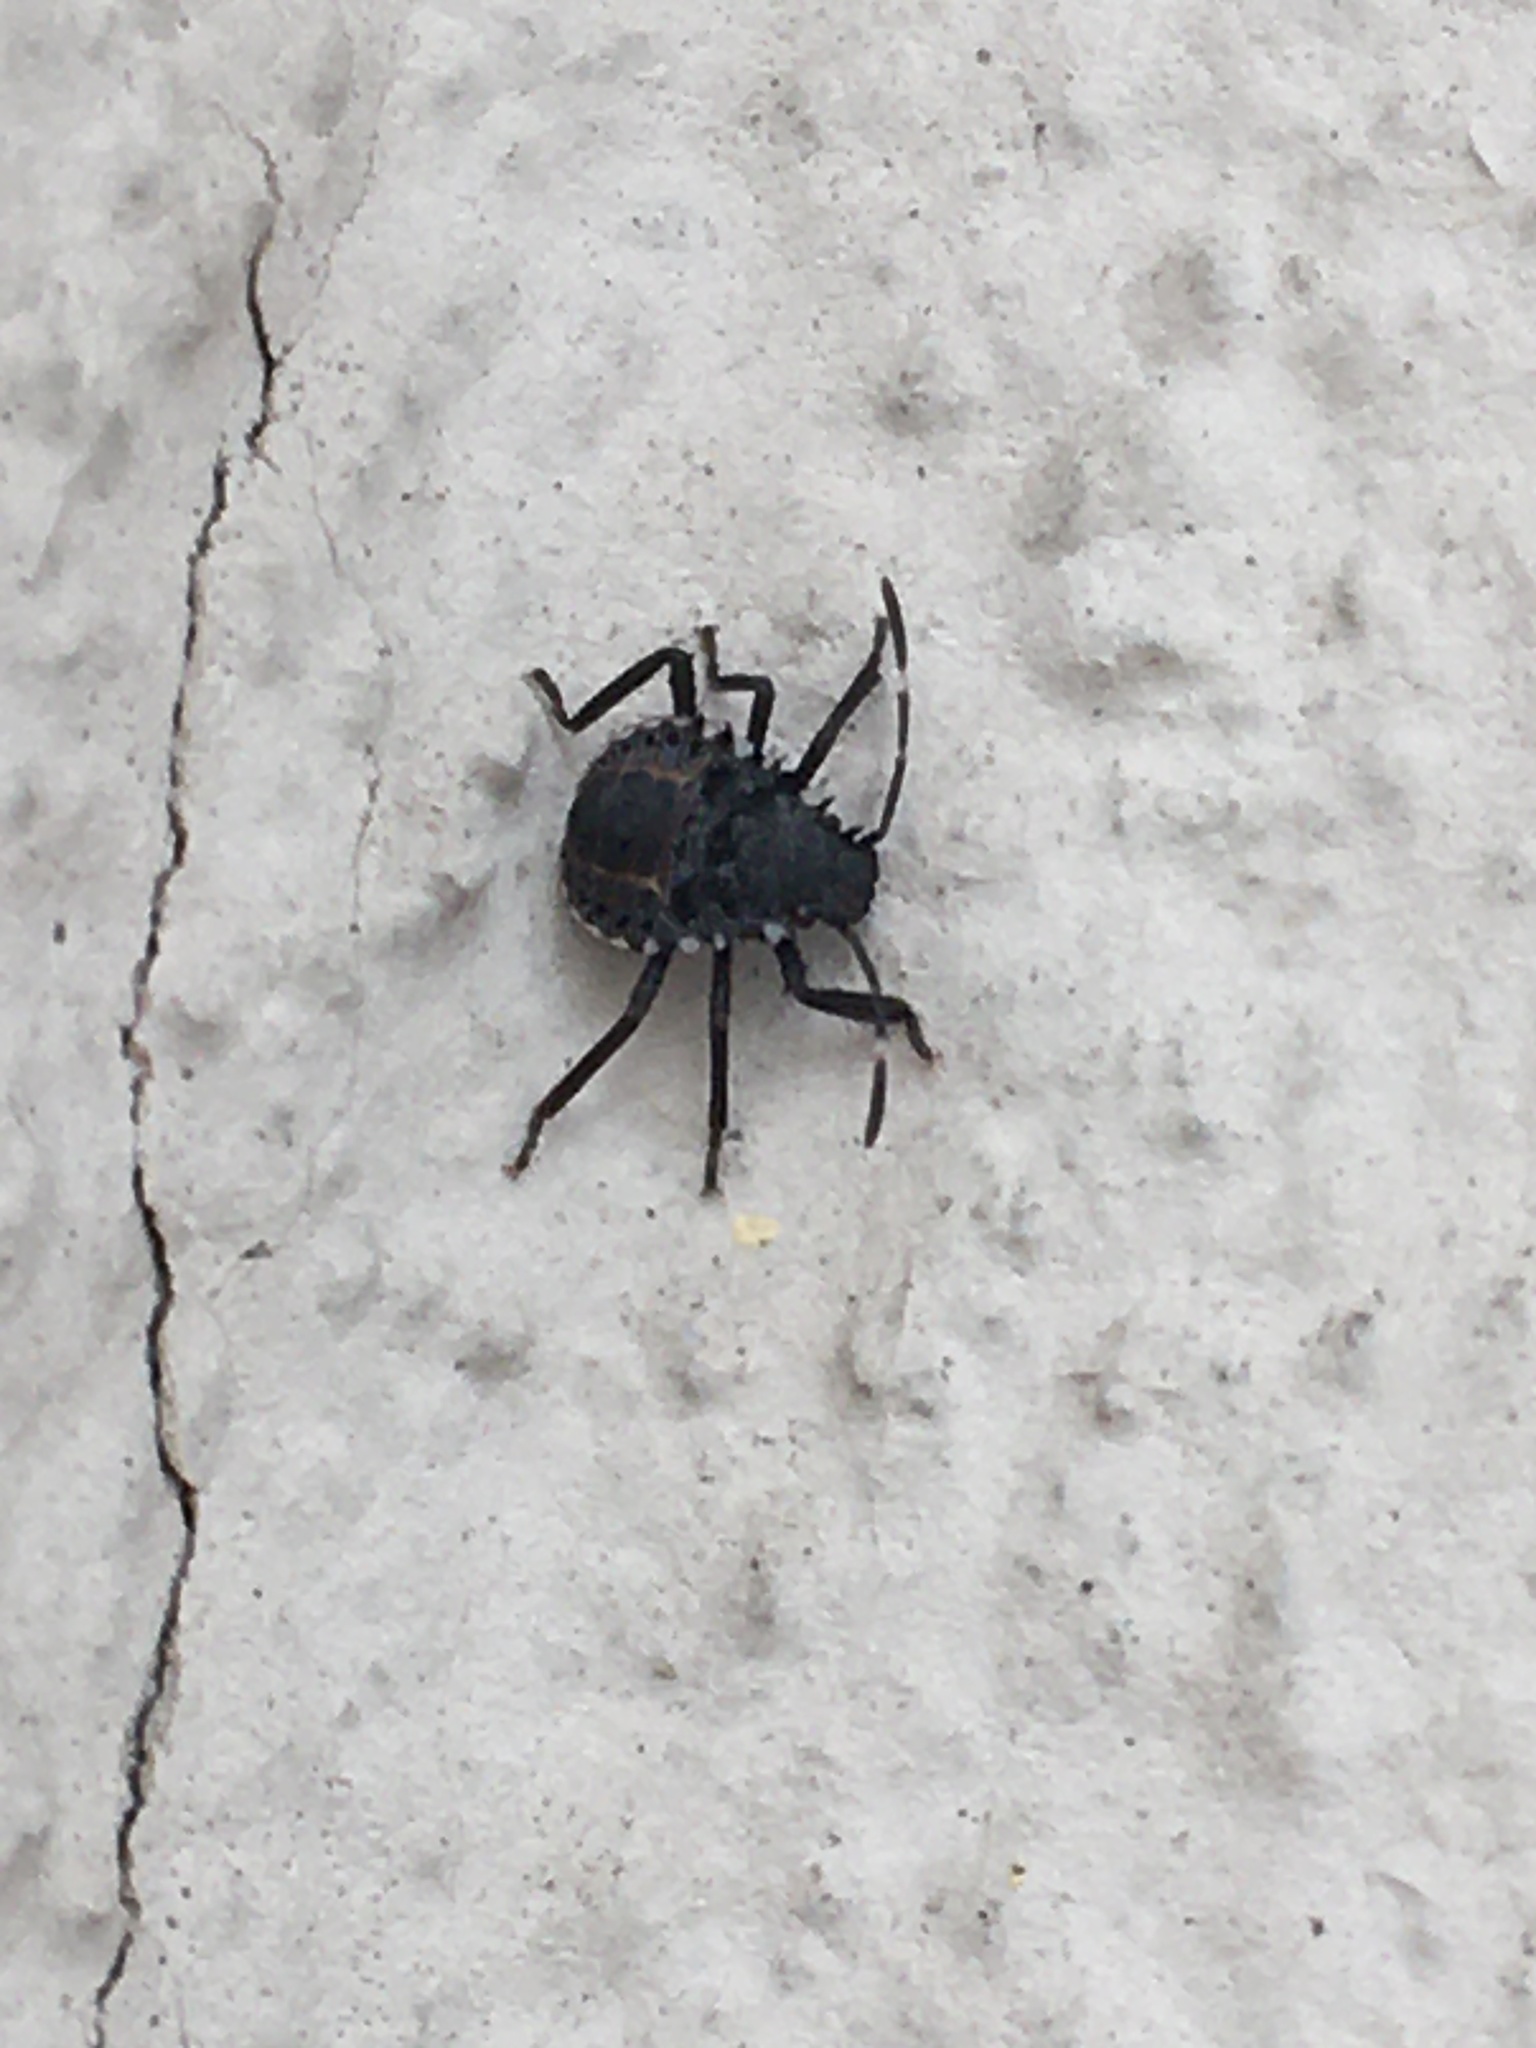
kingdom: Animalia
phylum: Arthropoda
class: Insecta
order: Hemiptera
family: Pentatomidae
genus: Halyomorpha
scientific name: Halyomorpha halys
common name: Brown marmorated stink bug
